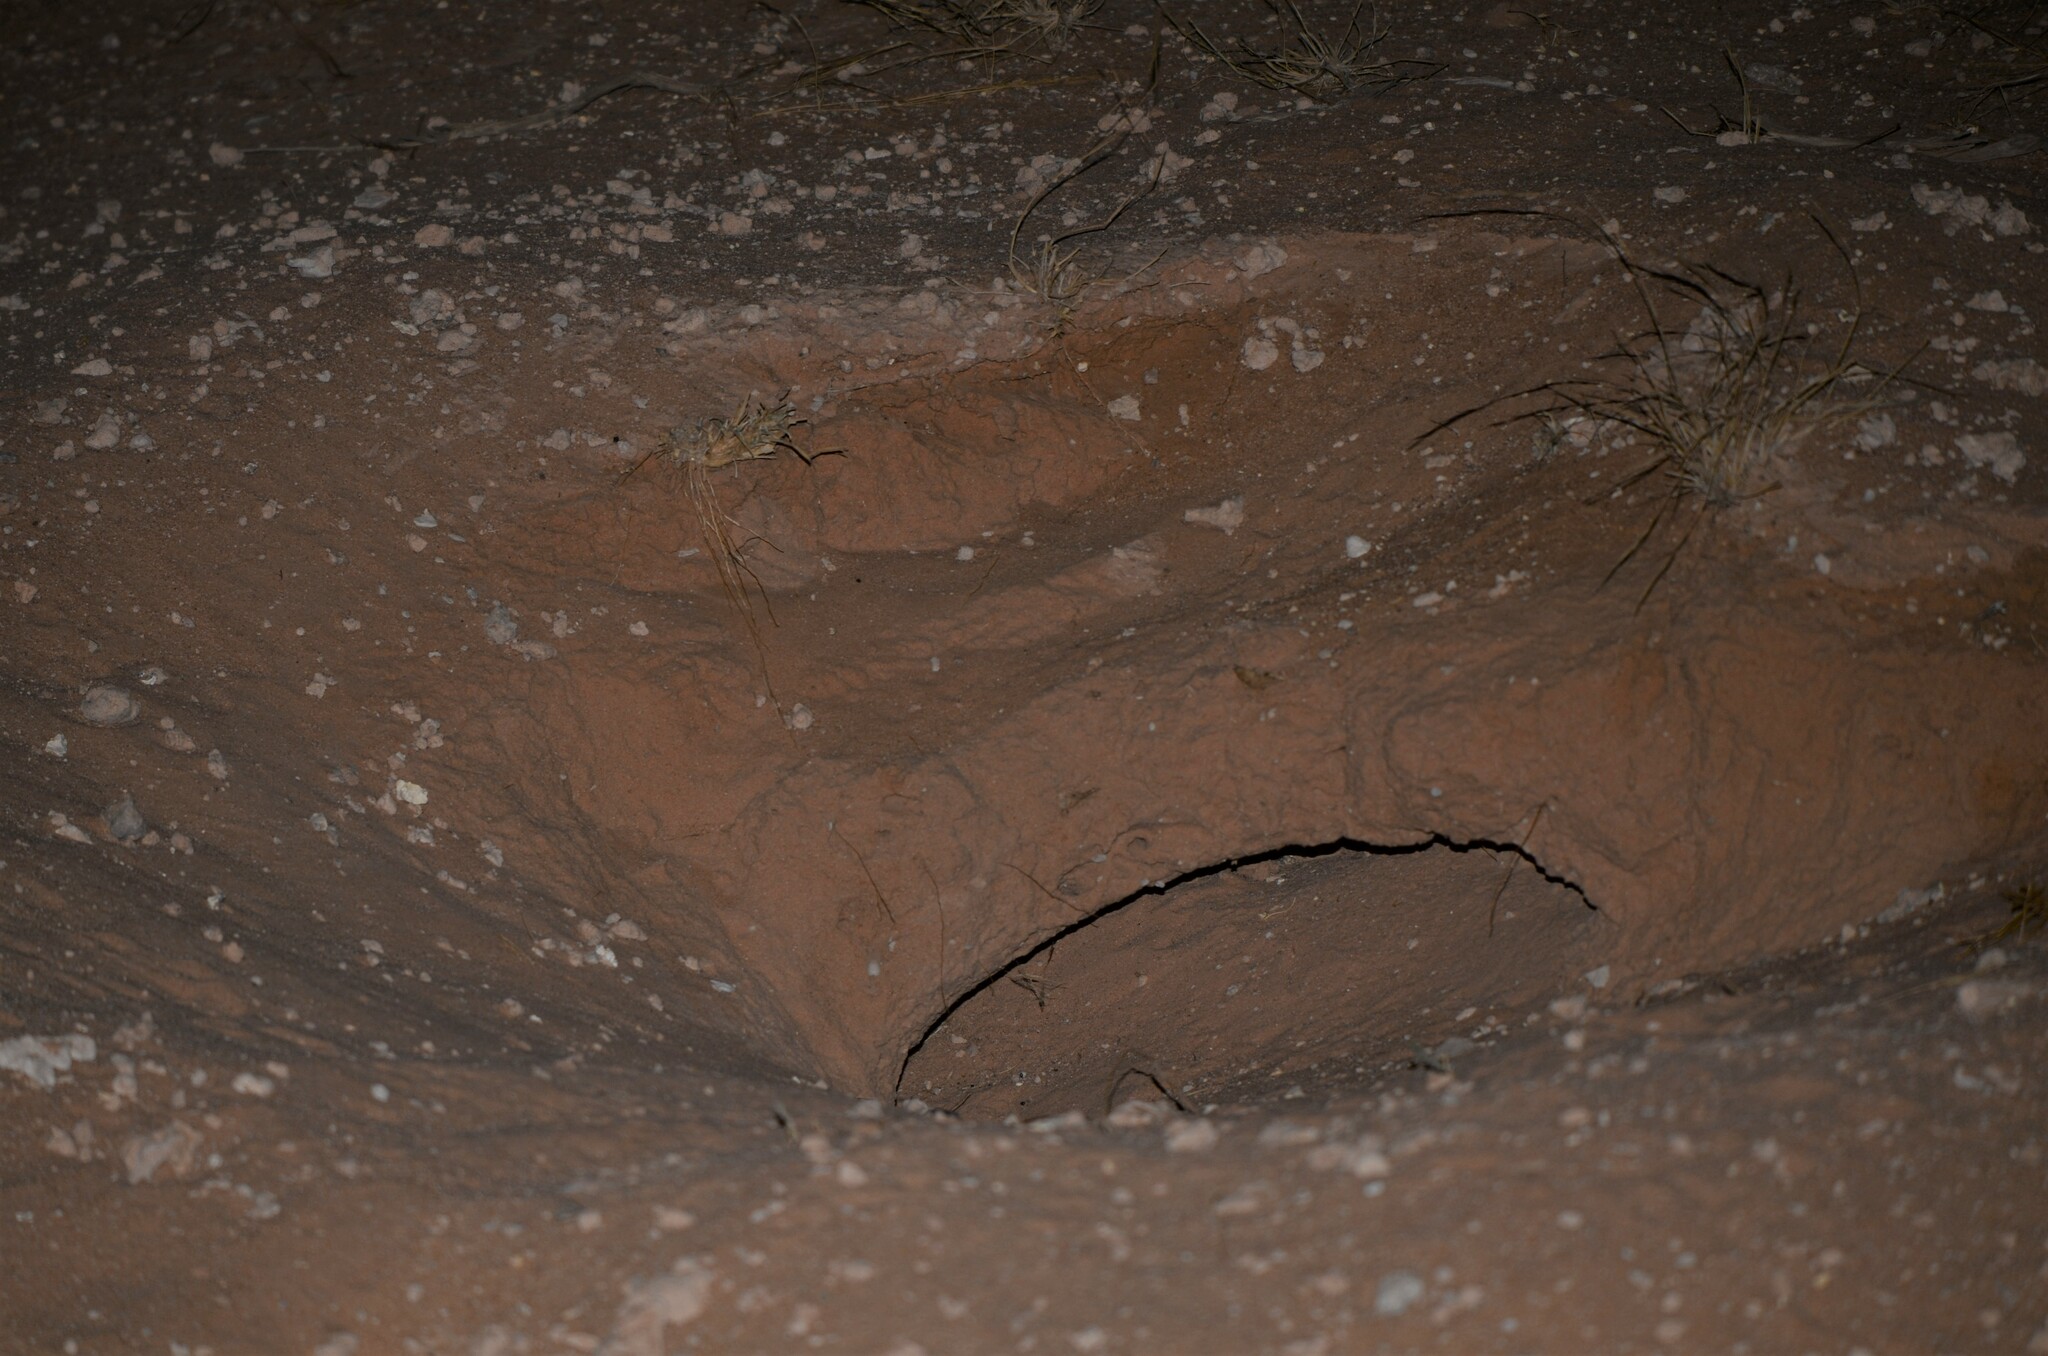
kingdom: Animalia
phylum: Chordata
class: Squamata
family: Agamidae
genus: Uromastyx
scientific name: Uromastyx aegyptia
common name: Egyptian mastigure
